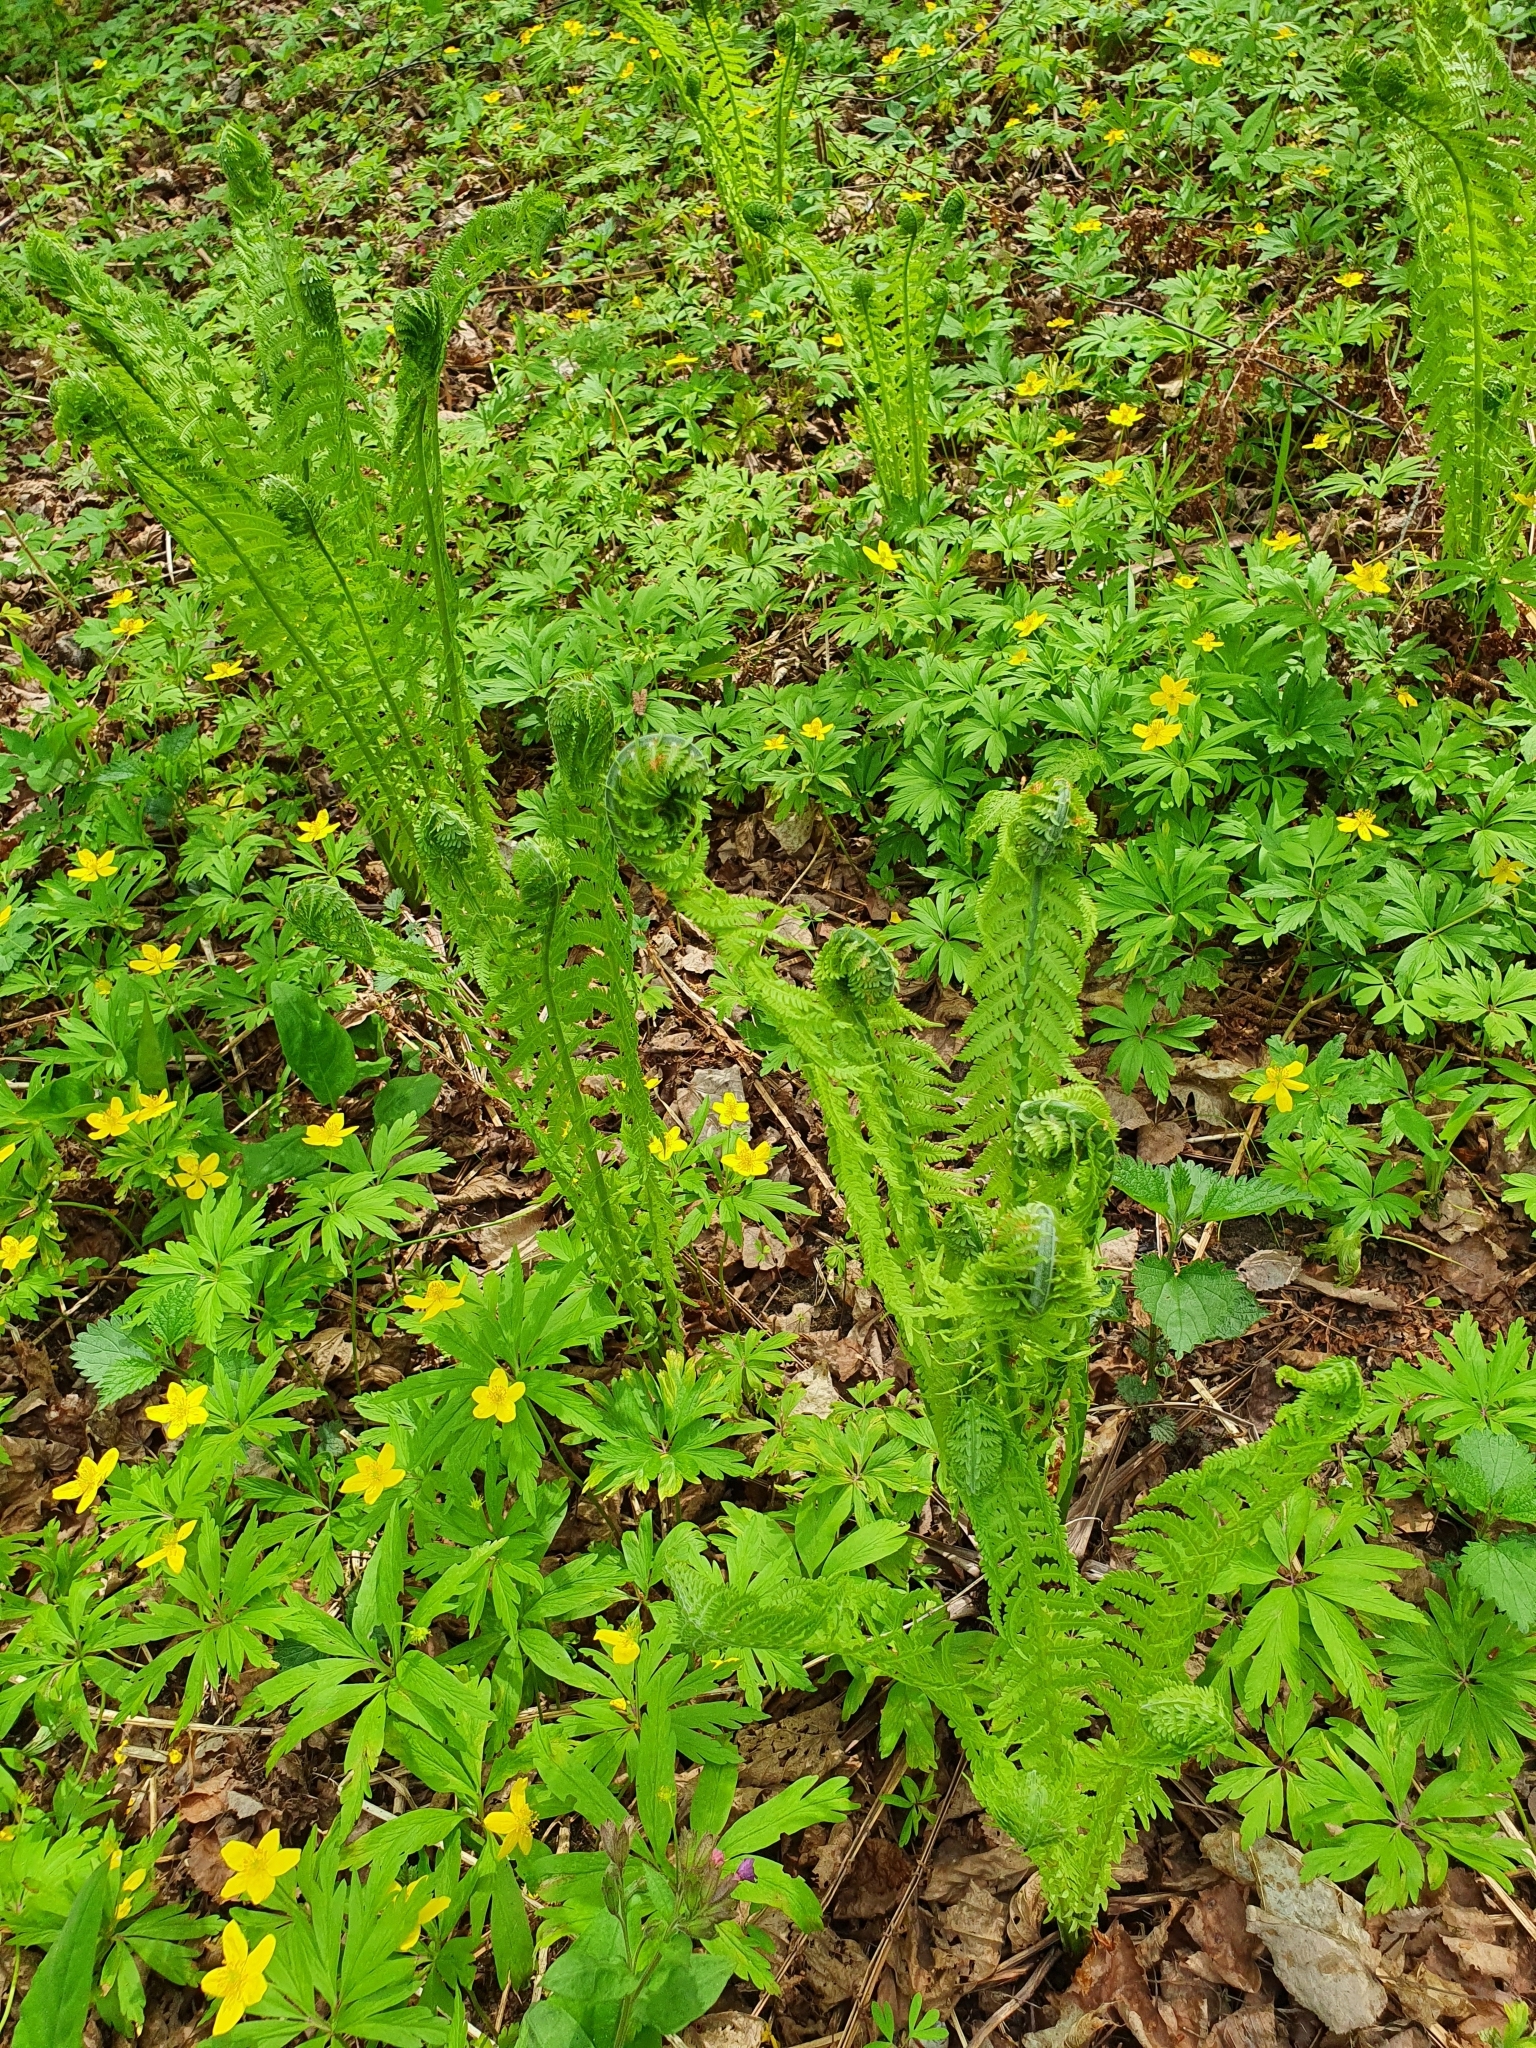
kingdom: Plantae
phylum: Tracheophyta
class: Polypodiopsida
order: Polypodiales
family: Onocleaceae
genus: Matteuccia
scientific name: Matteuccia struthiopteris
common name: Ostrich fern
